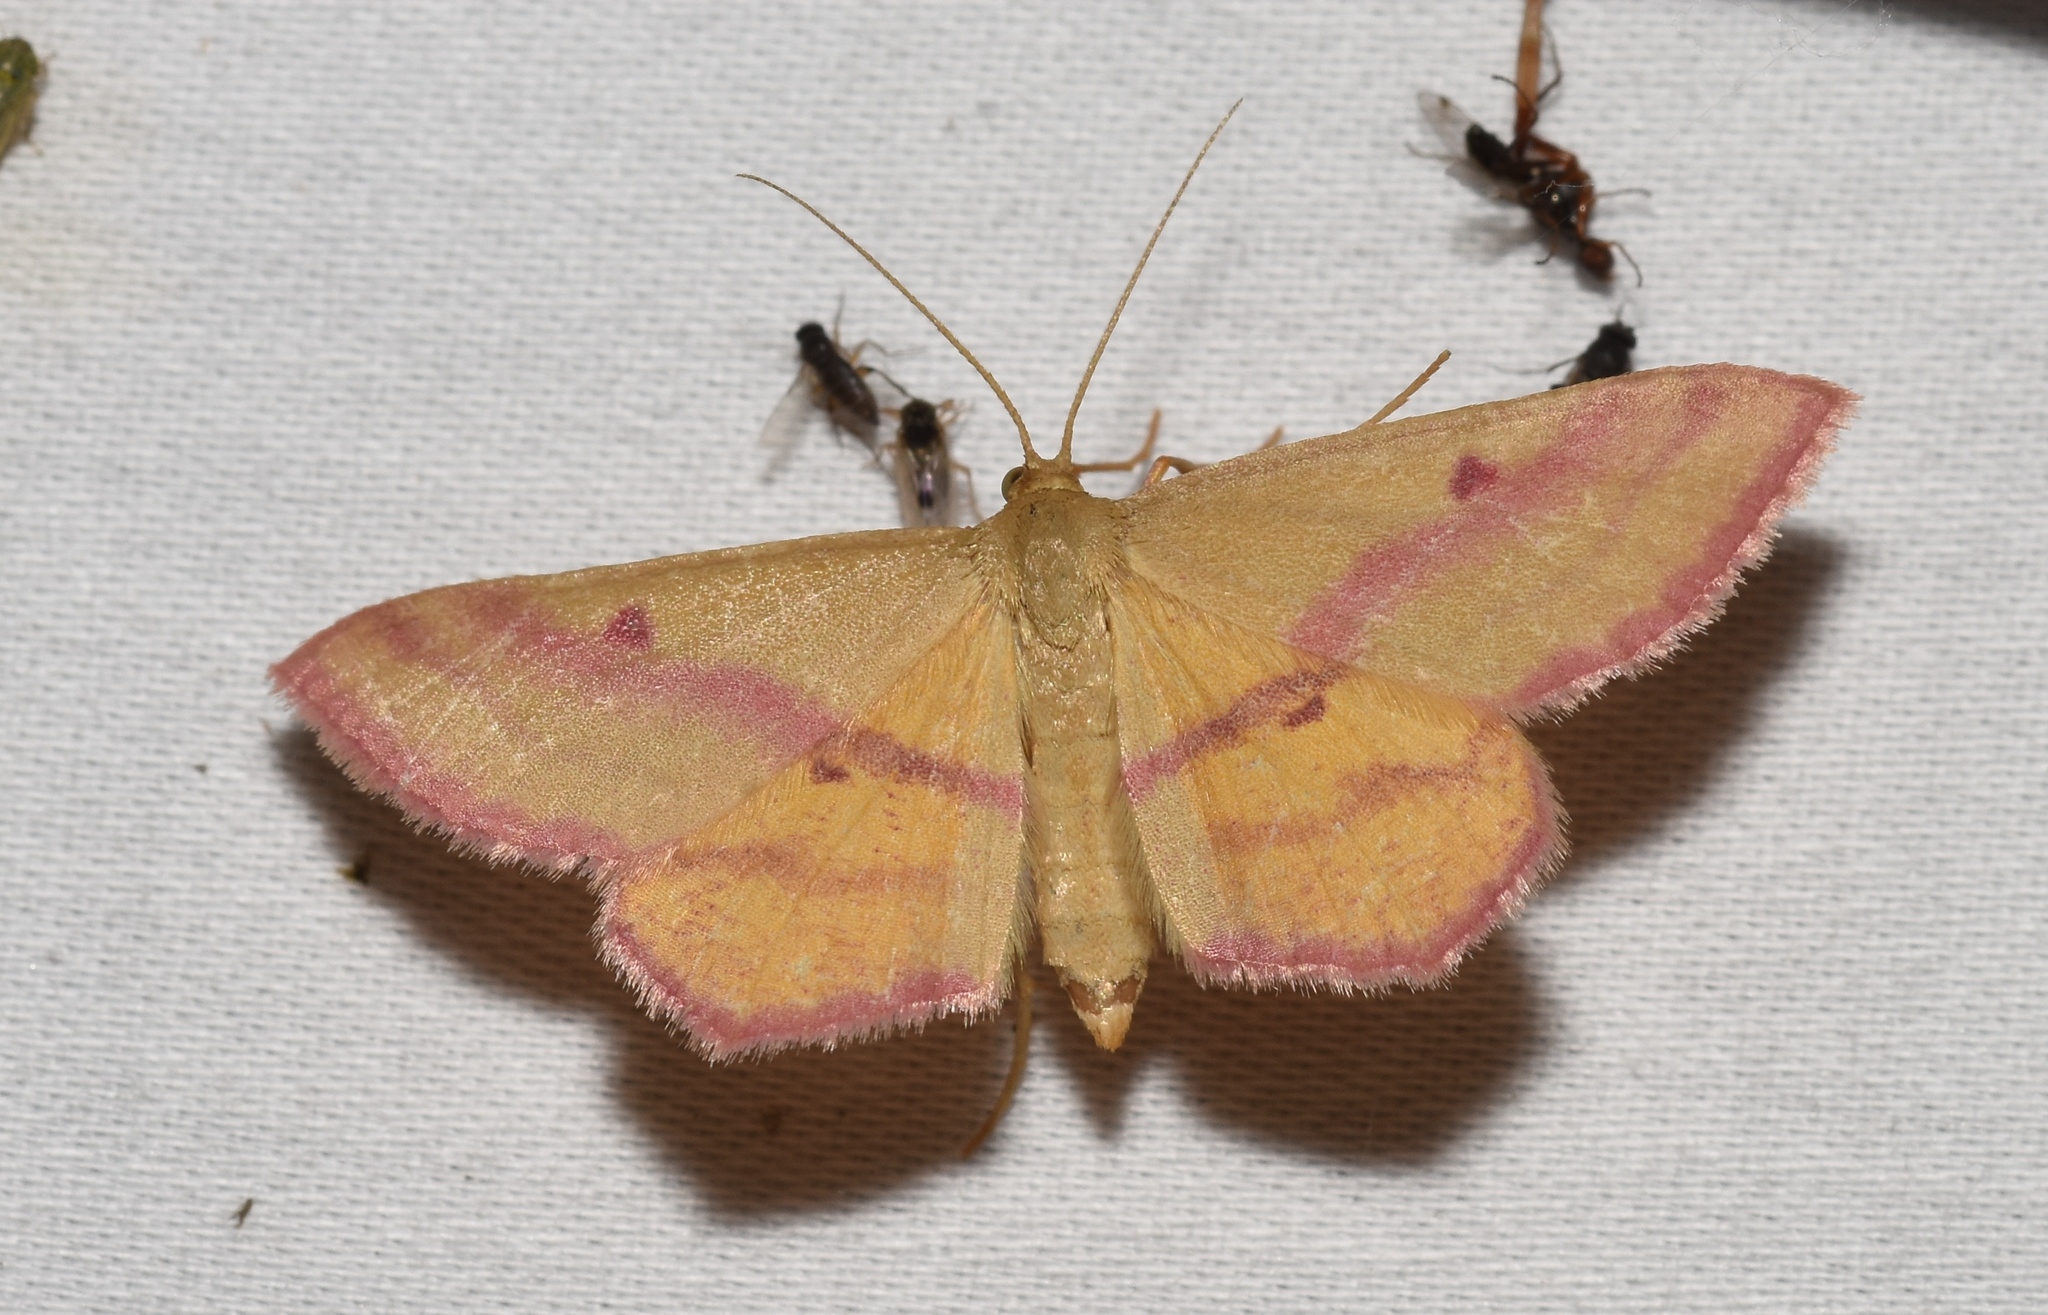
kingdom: Animalia
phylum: Arthropoda
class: Insecta
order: Lepidoptera
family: Geometridae
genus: Haematopis
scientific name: Haematopis grataria
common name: Chickweed geometer
